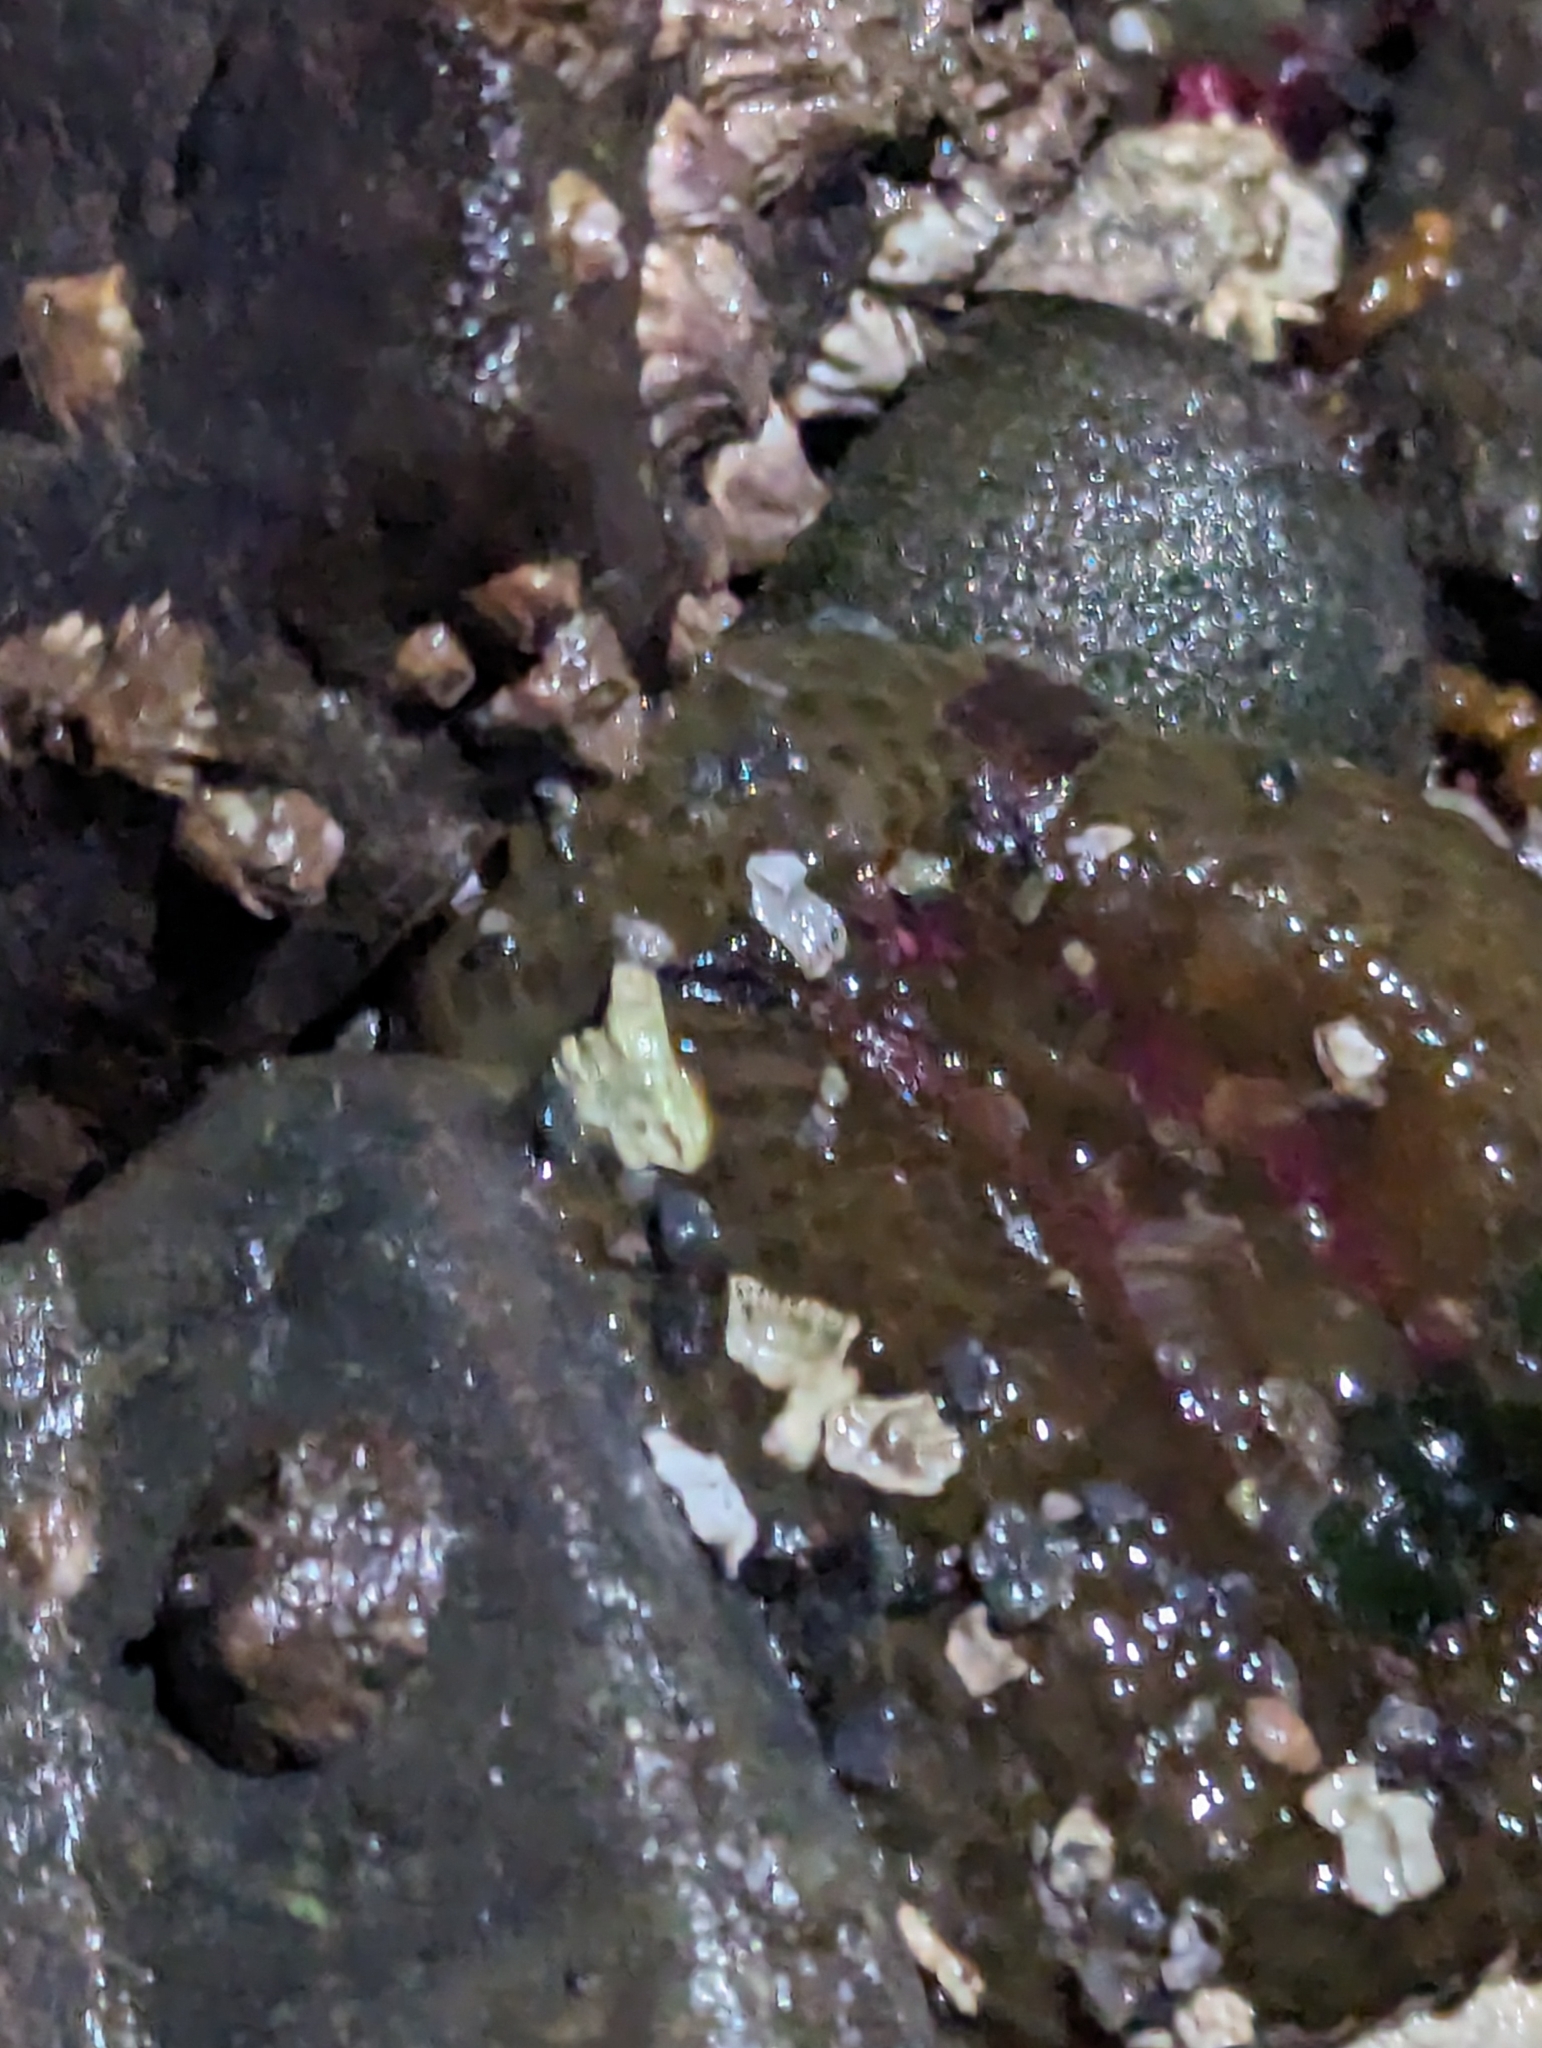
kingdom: Animalia
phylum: Cnidaria
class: Anthozoa
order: Actiniaria
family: Actiniidae
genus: Anthopleura
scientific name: Anthopleura elegantissima
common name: Clonal anemone
